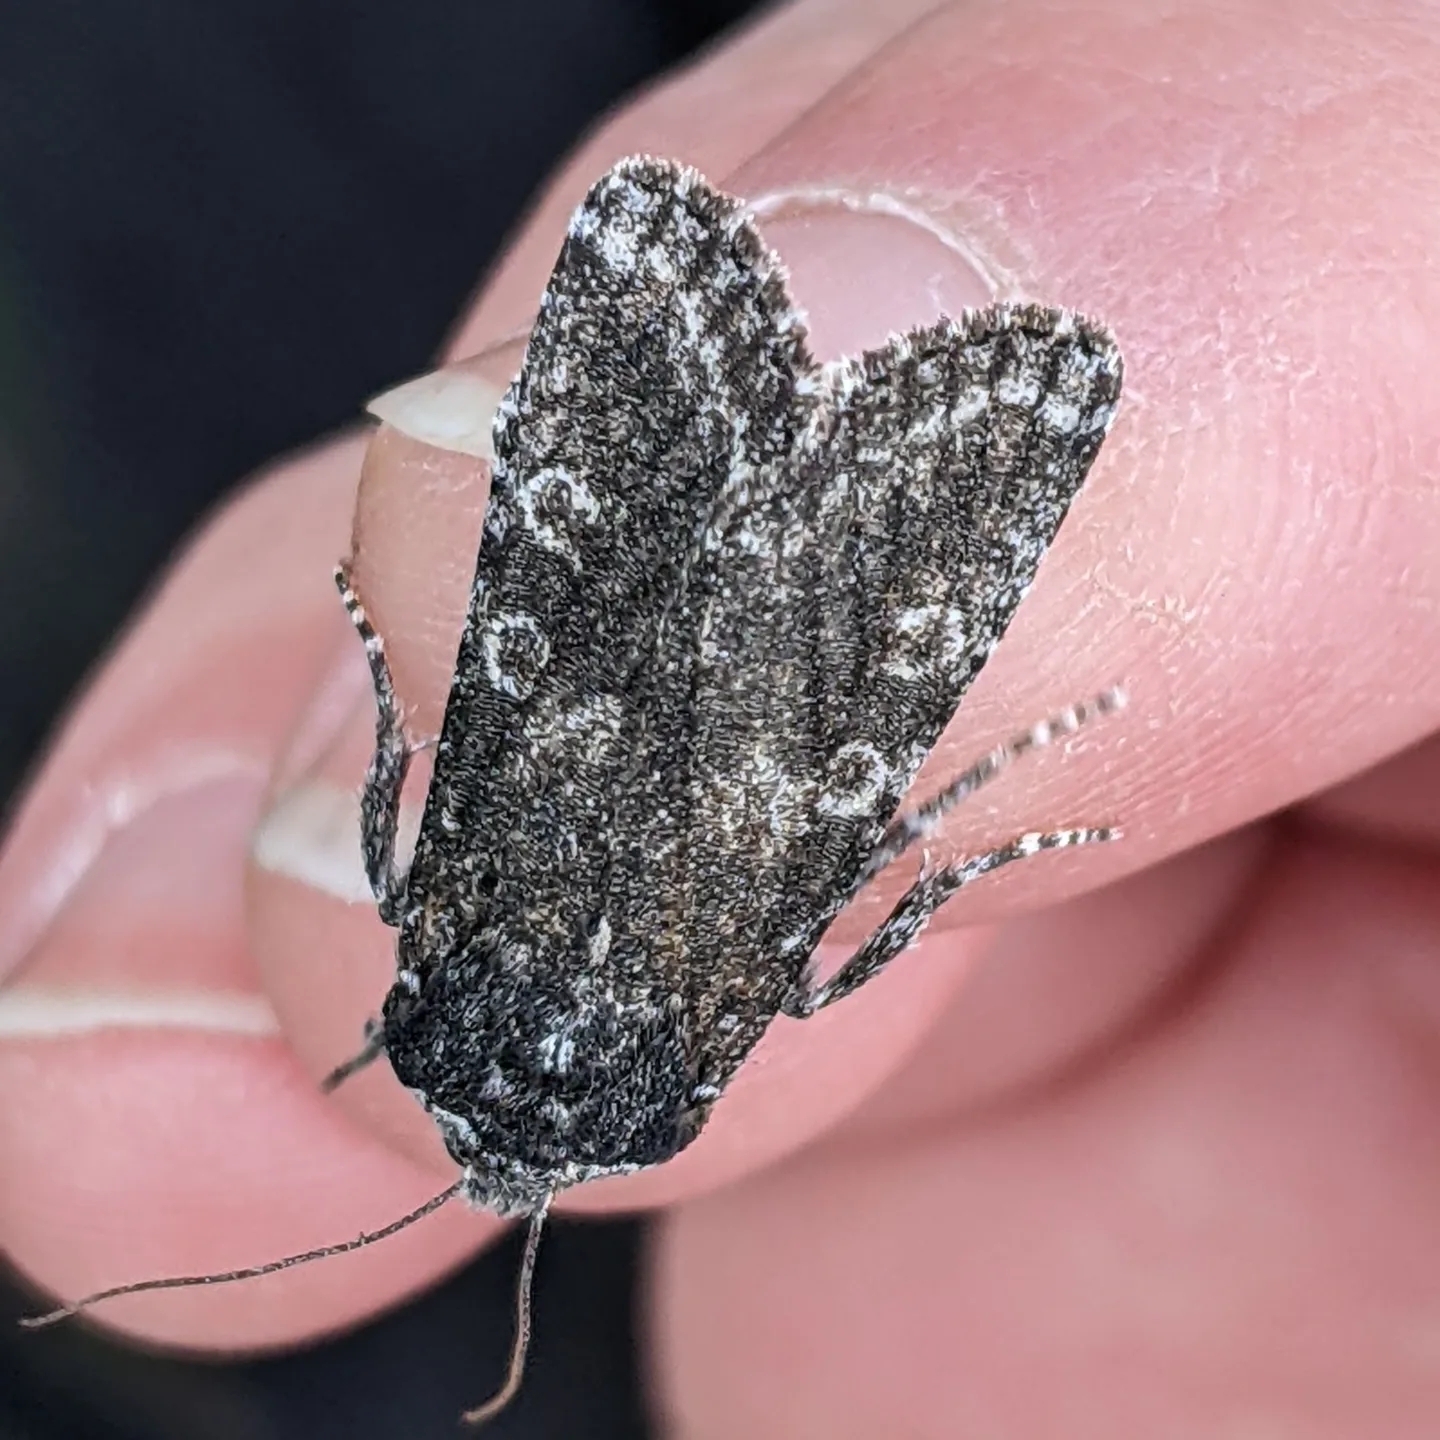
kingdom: Animalia
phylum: Arthropoda
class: Insecta
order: Lepidoptera
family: Noctuidae
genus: Egira
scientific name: Egira dolosa
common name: Lined black aspen cat.
